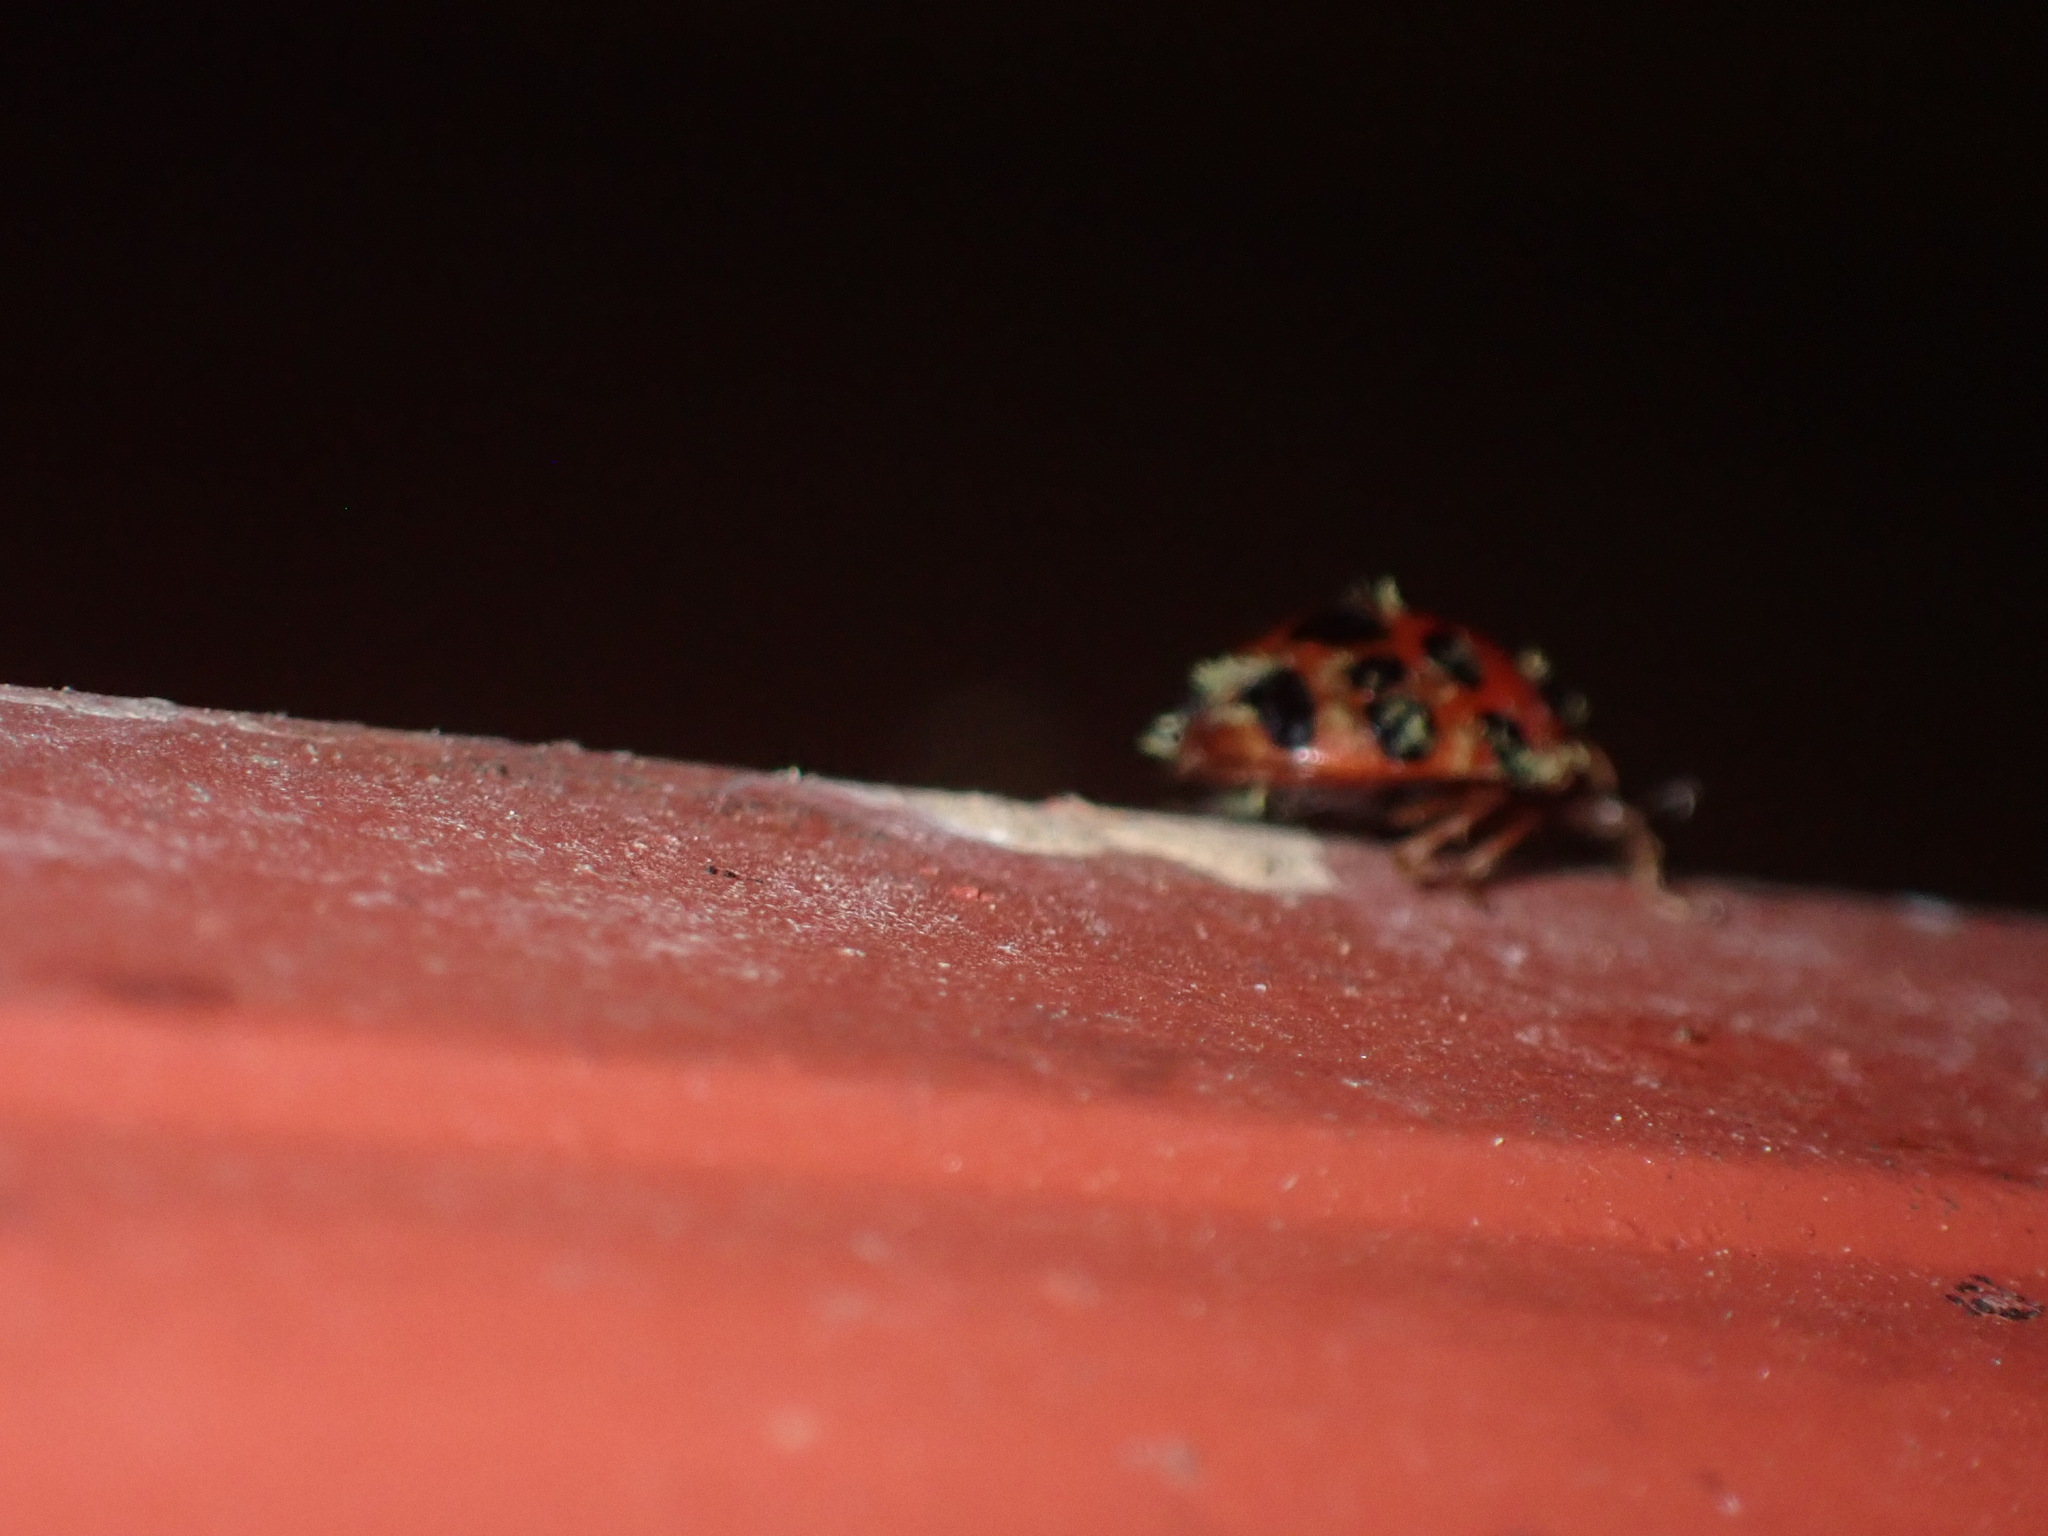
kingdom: Animalia
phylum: Arthropoda
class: Insecta
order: Coleoptera
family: Coccinellidae
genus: Harmonia
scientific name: Harmonia axyridis
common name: Harlequin ladybird
